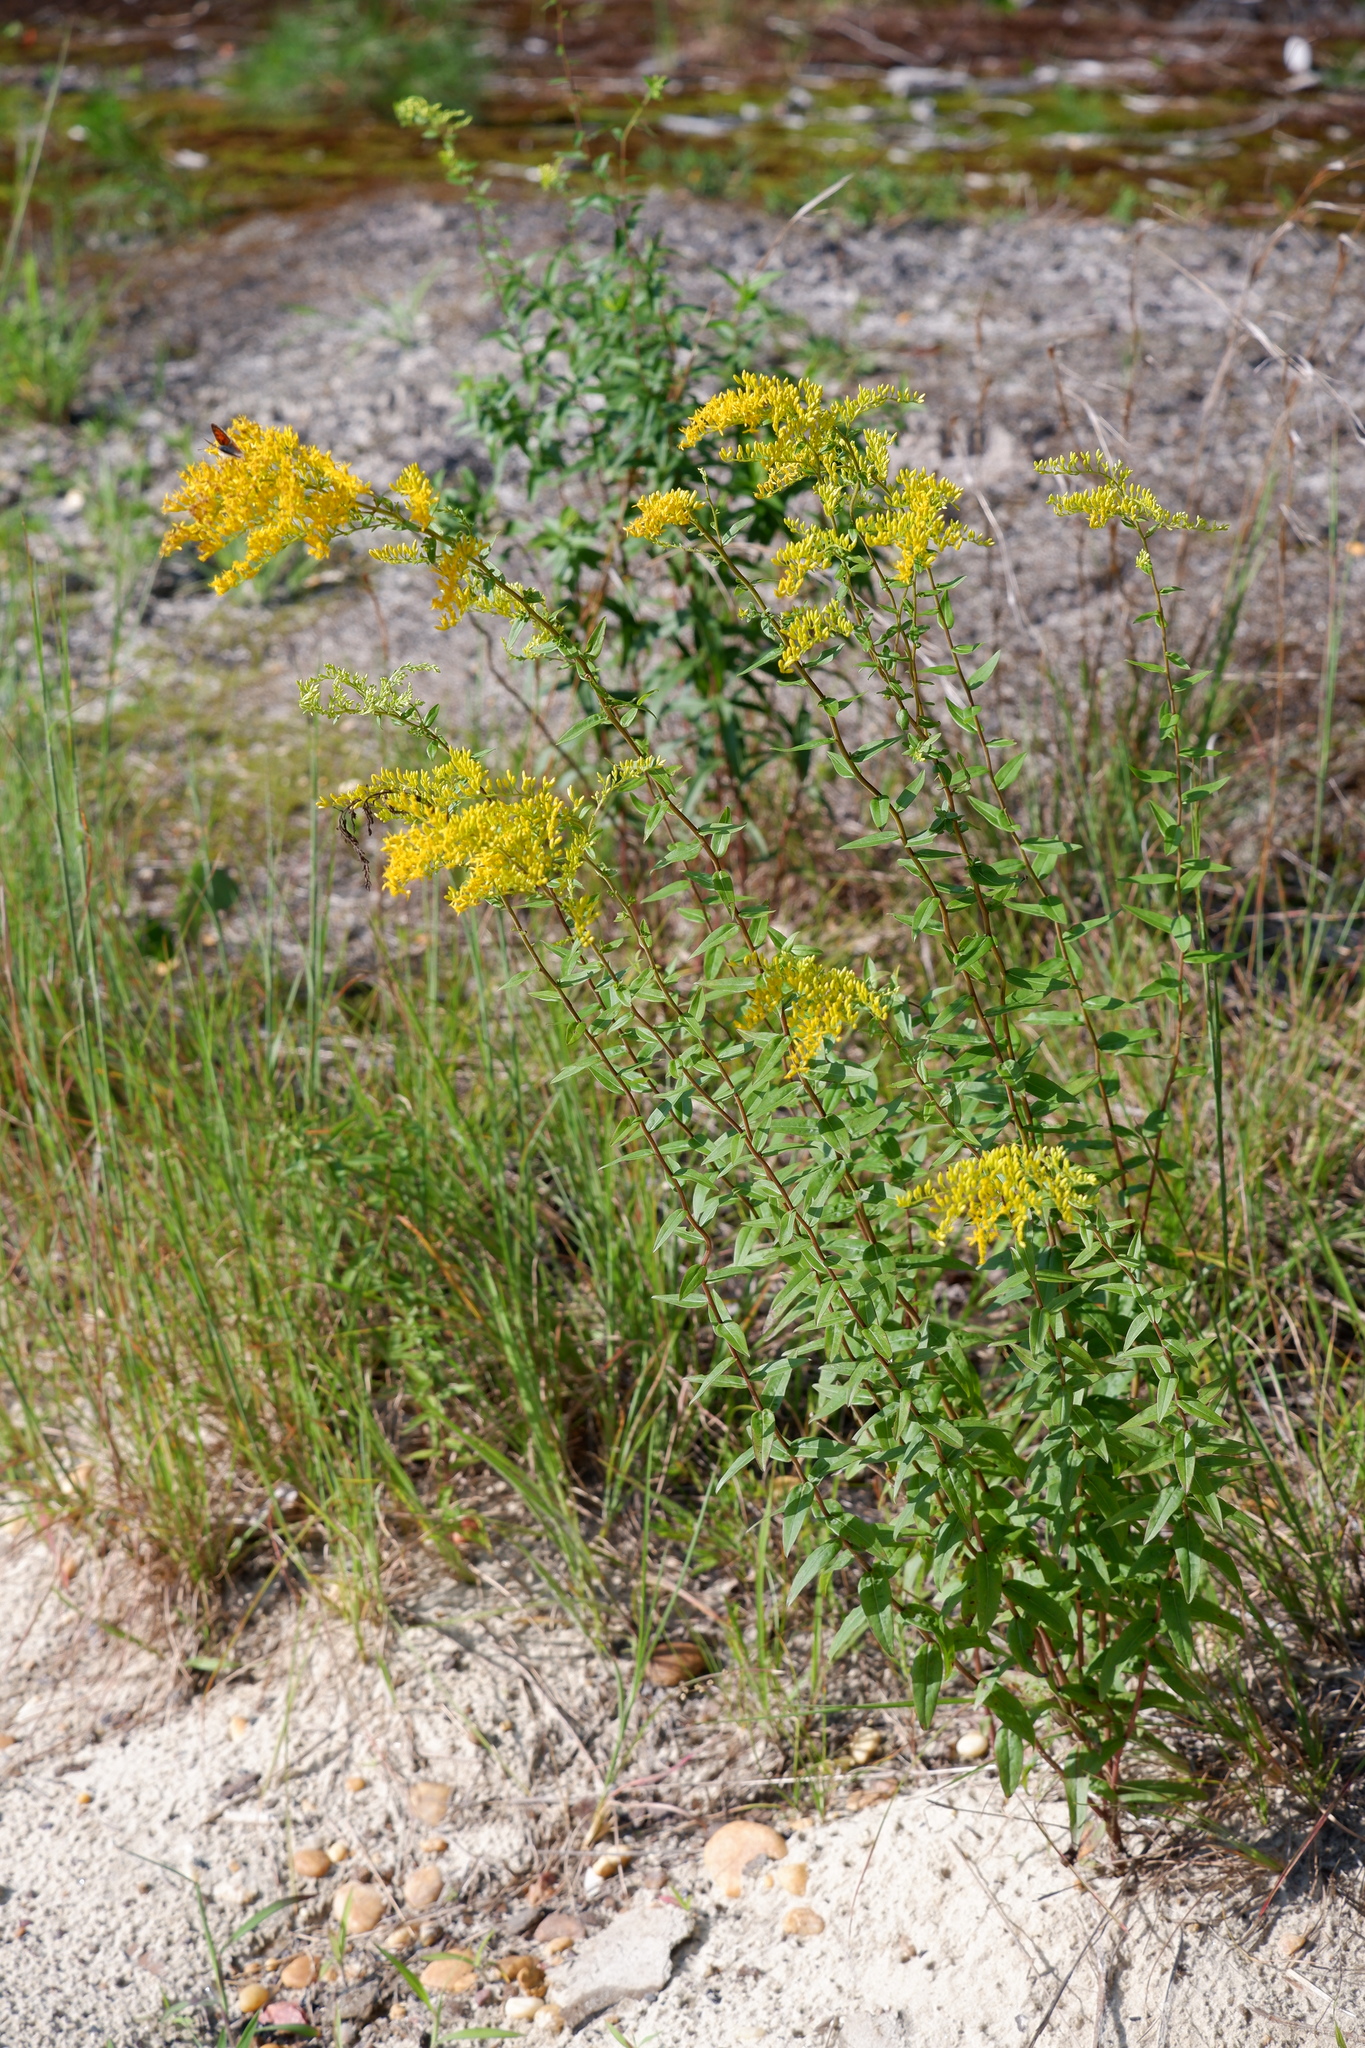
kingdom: Plantae
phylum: Tracheophyta
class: Magnoliopsida
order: Asterales
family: Asteraceae
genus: Solidago
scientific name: Solidago odora
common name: Anise-scented goldenrod
